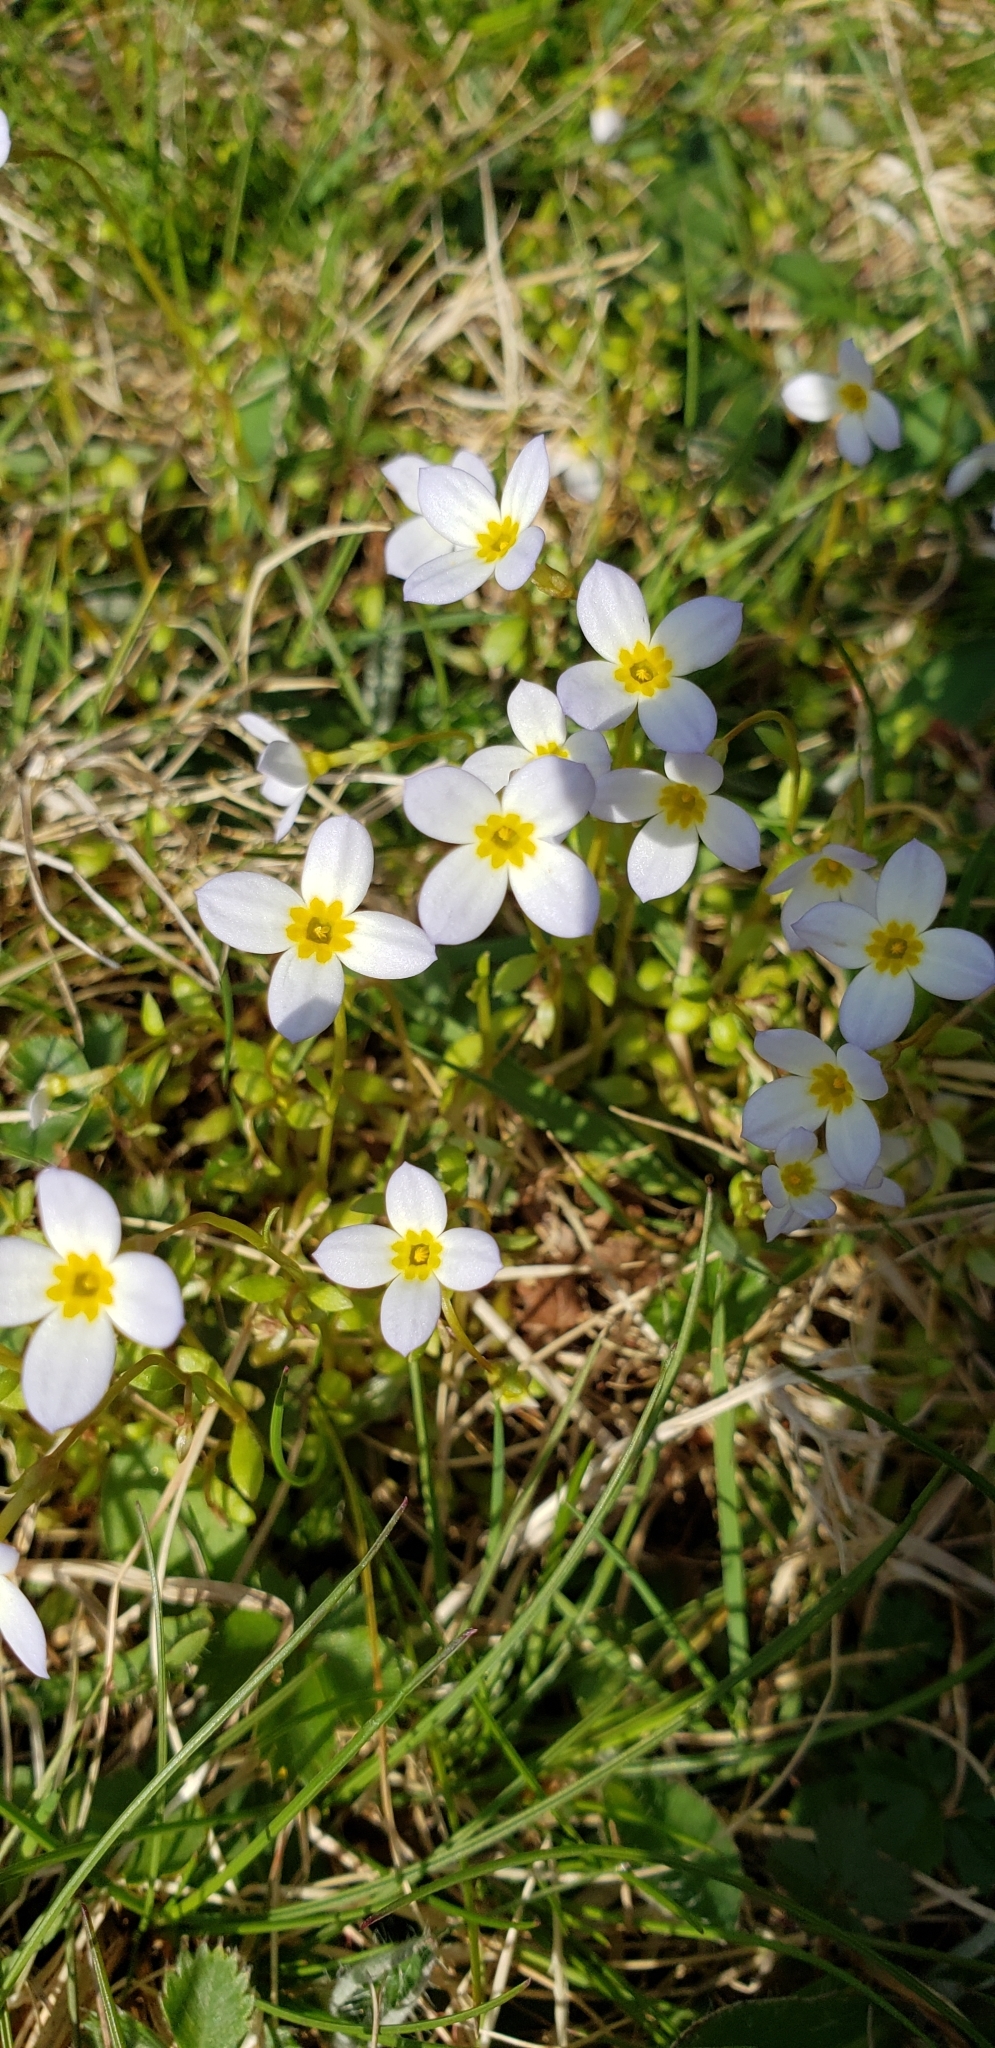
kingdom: Plantae
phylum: Tracheophyta
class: Magnoliopsida
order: Gentianales
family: Rubiaceae
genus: Houstonia
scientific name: Houstonia caerulea
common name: Bluets
